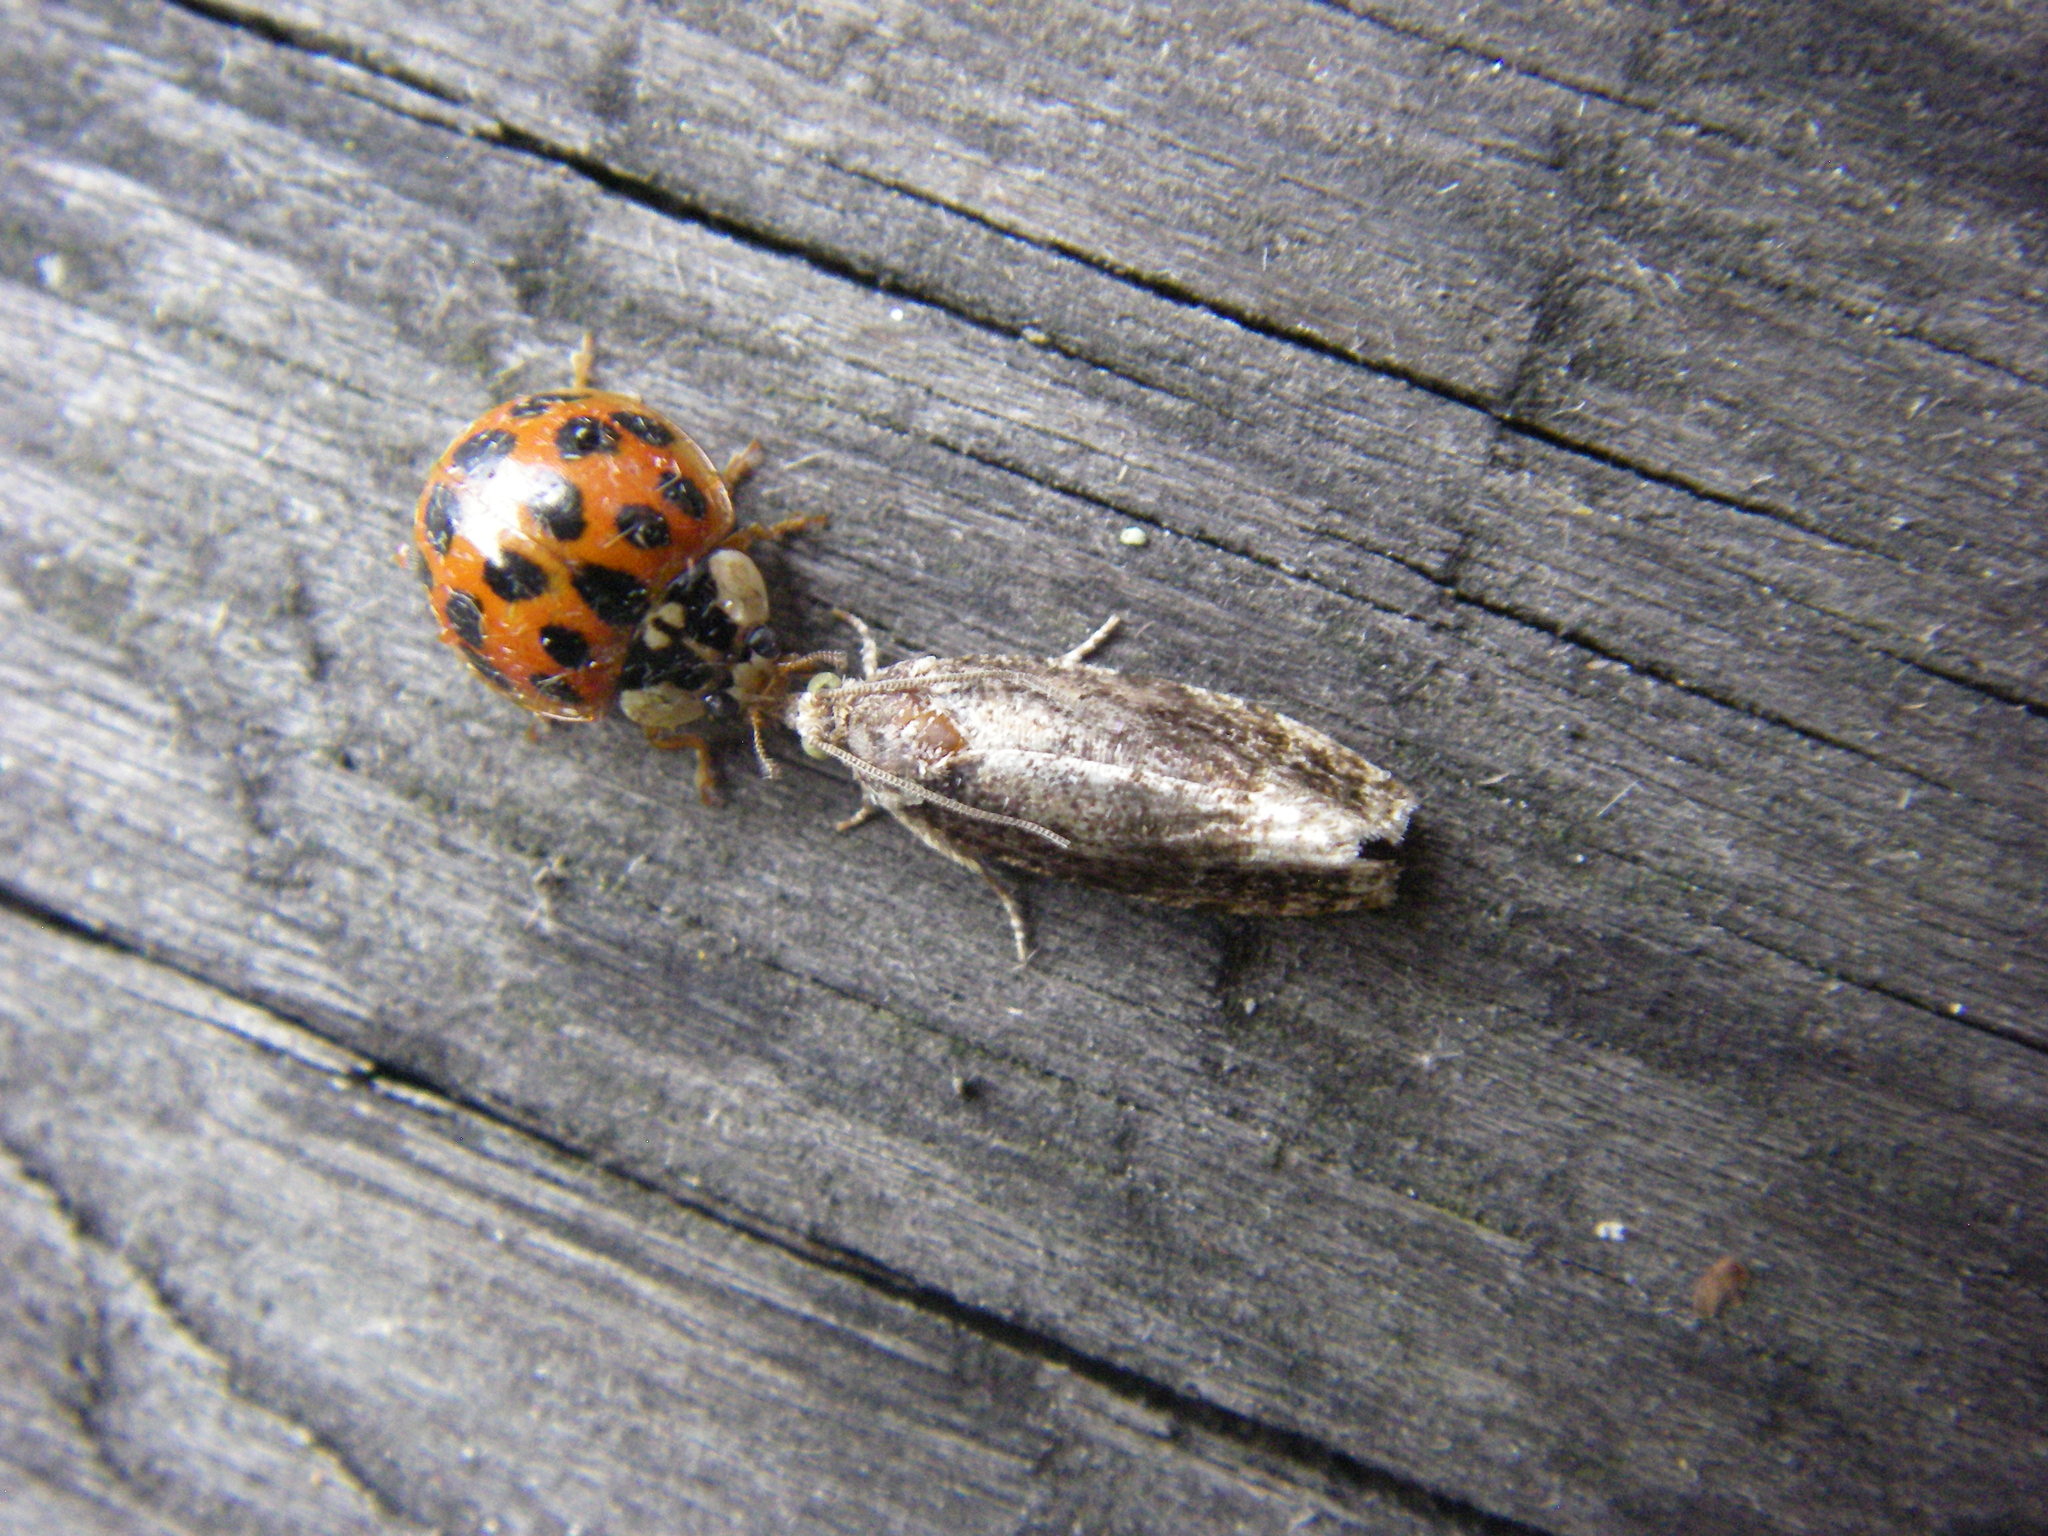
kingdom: Animalia
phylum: Arthropoda
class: Insecta
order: Coleoptera
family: Coccinellidae
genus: Harmonia
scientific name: Harmonia axyridis
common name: Harlequin ladybird
